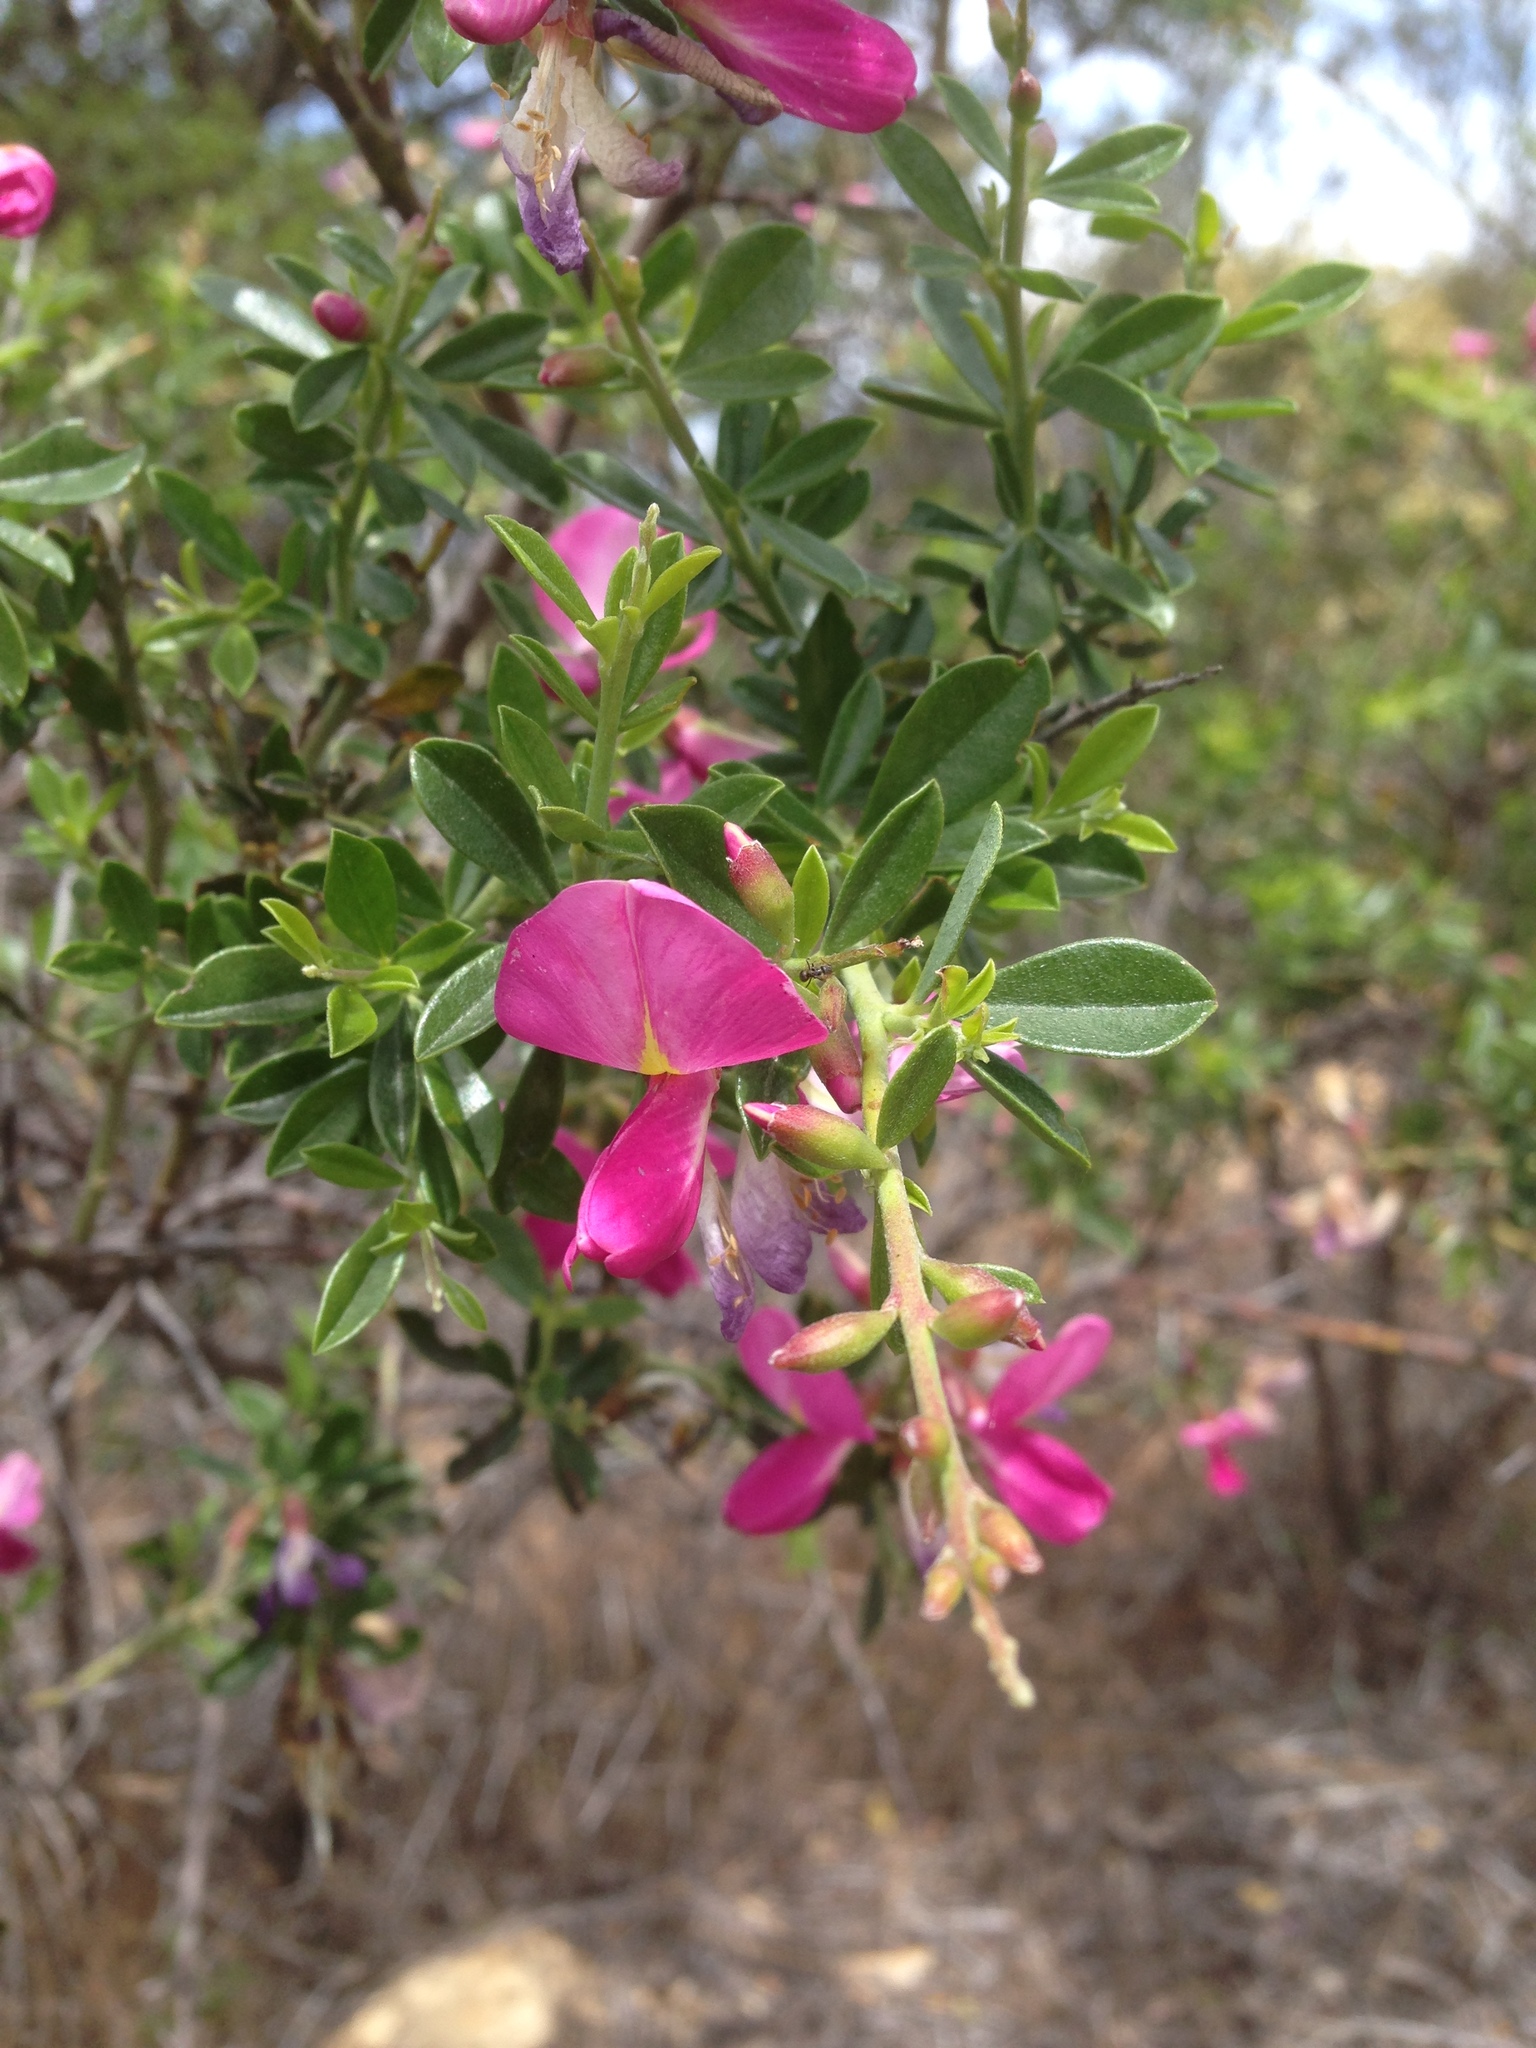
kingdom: Plantae
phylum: Tracheophyta
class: Magnoliopsida
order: Fabales
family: Fabaceae
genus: Pickeringia
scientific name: Pickeringia montana
